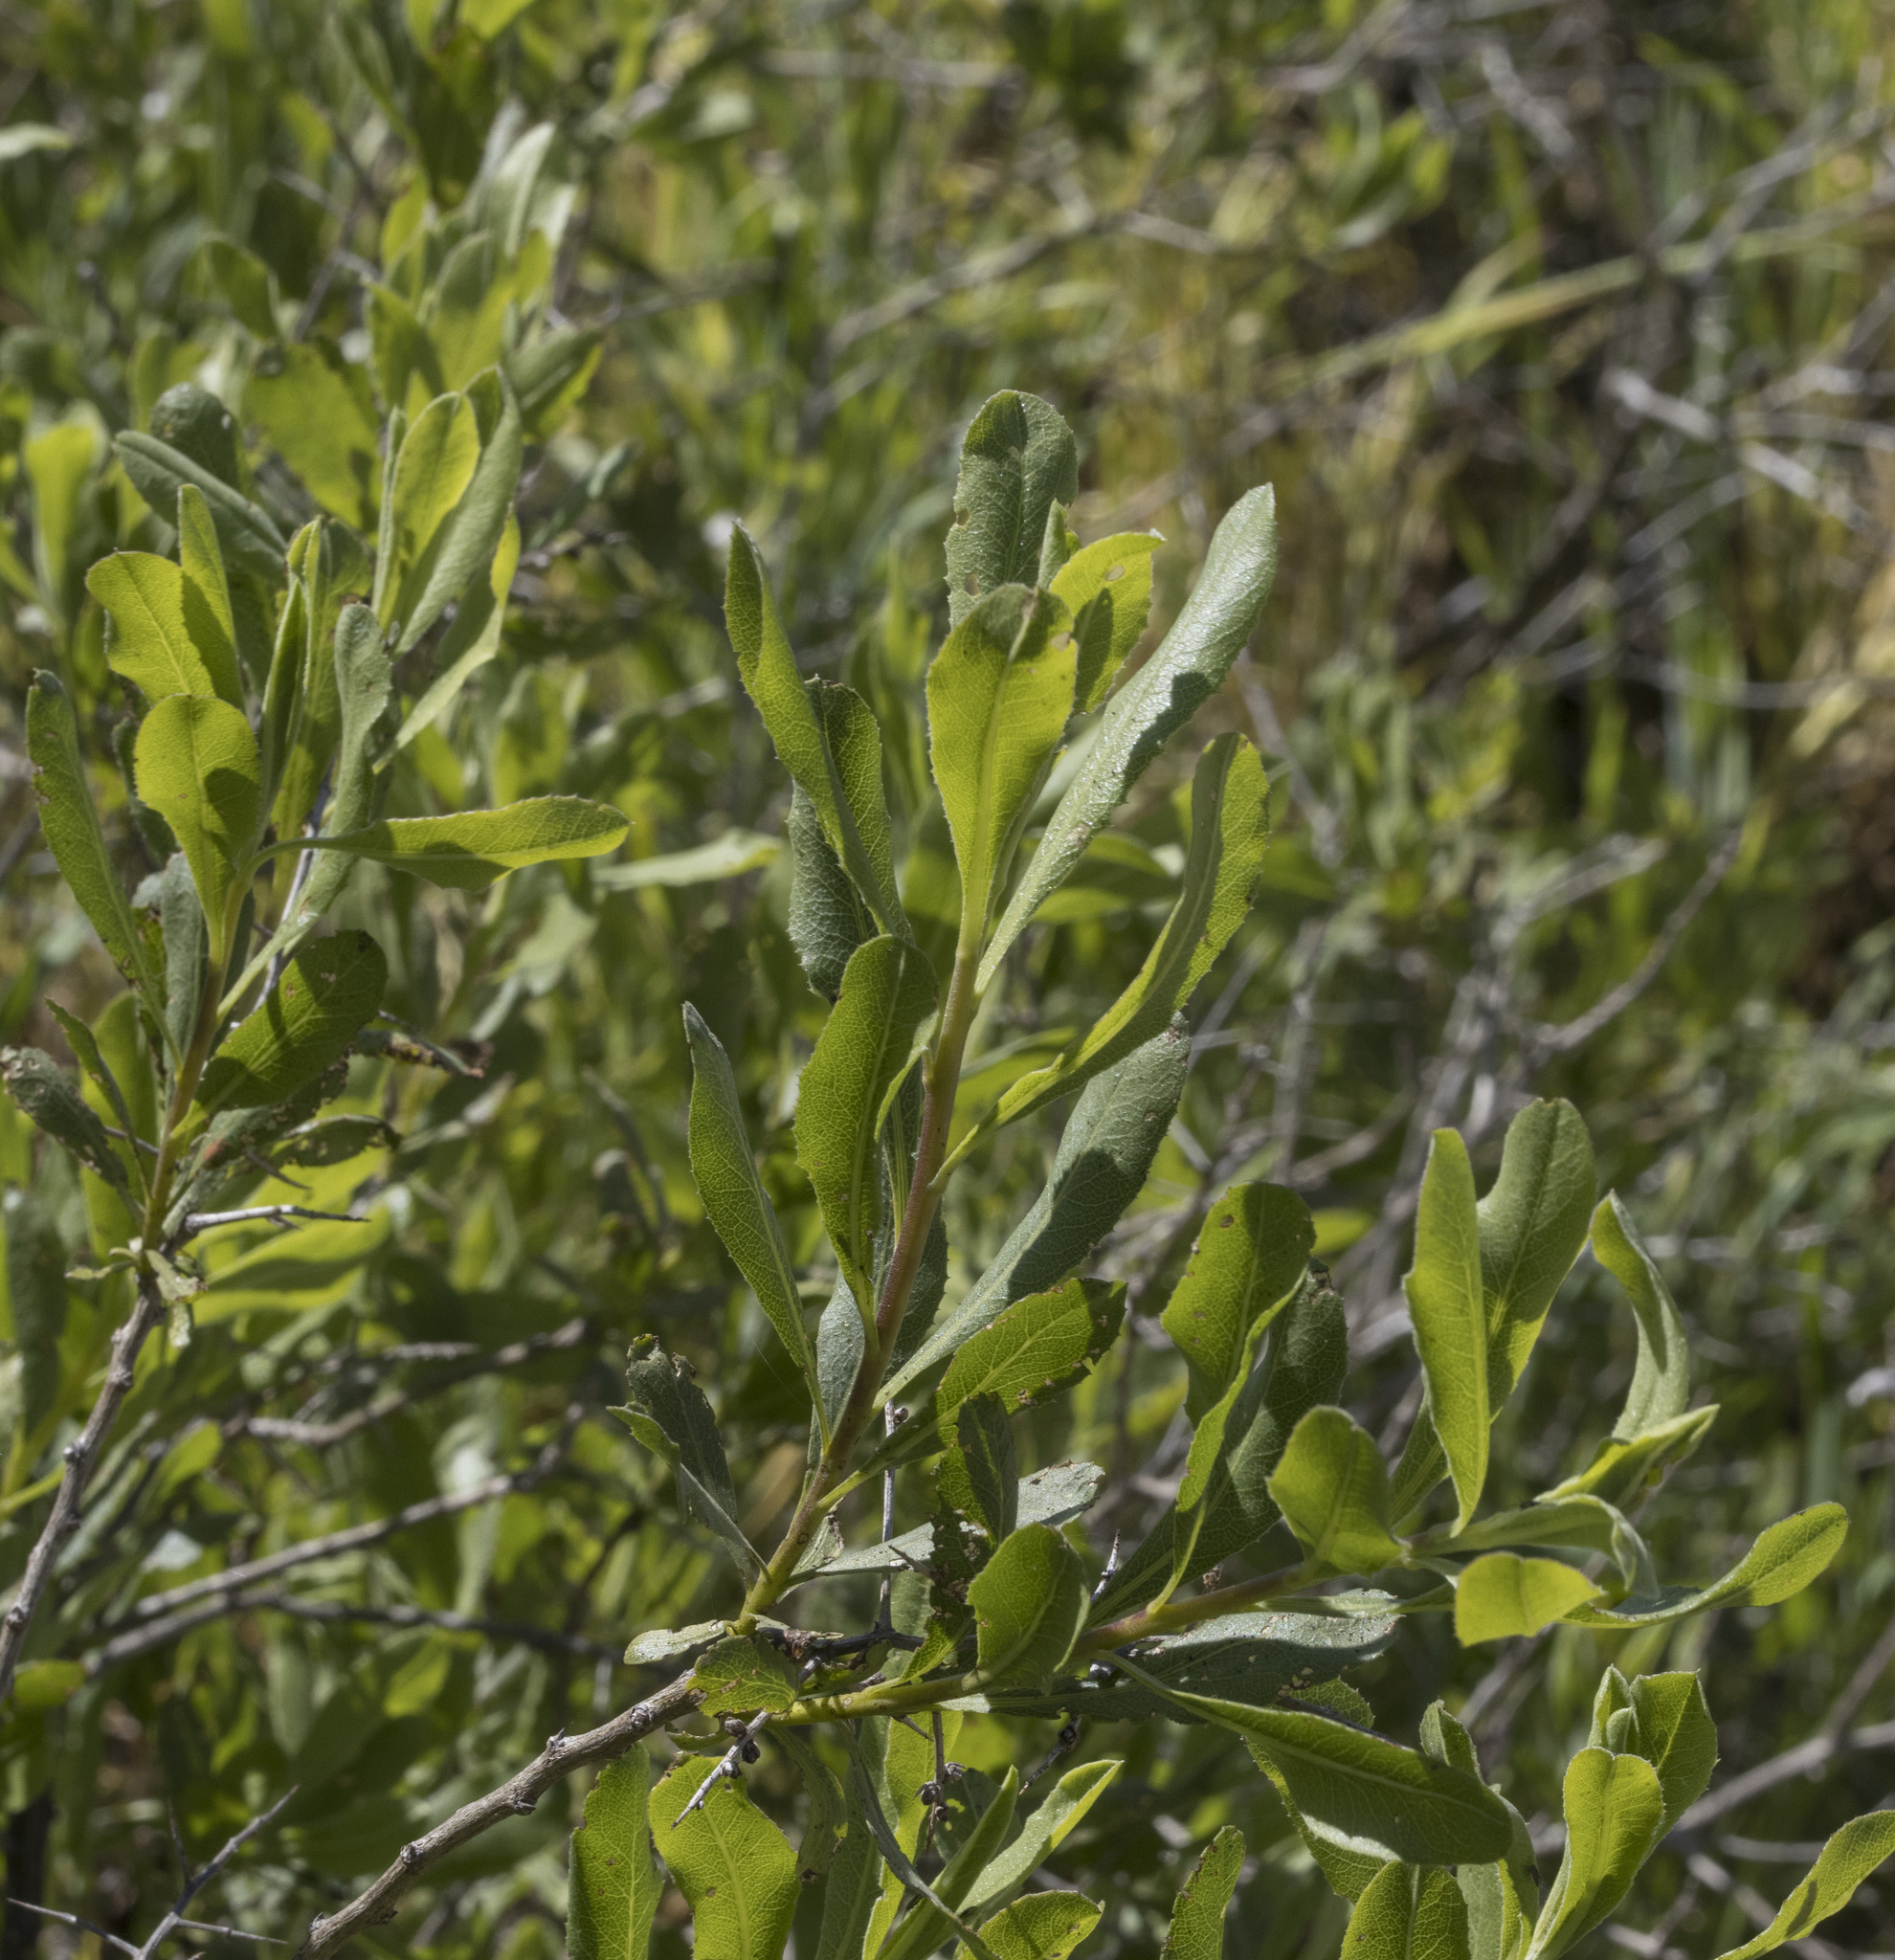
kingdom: Plantae
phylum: Tracheophyta
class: Magnoliopsida
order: Asterales
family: Asteraceae
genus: Proustia
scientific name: Proustia cuneifolia
